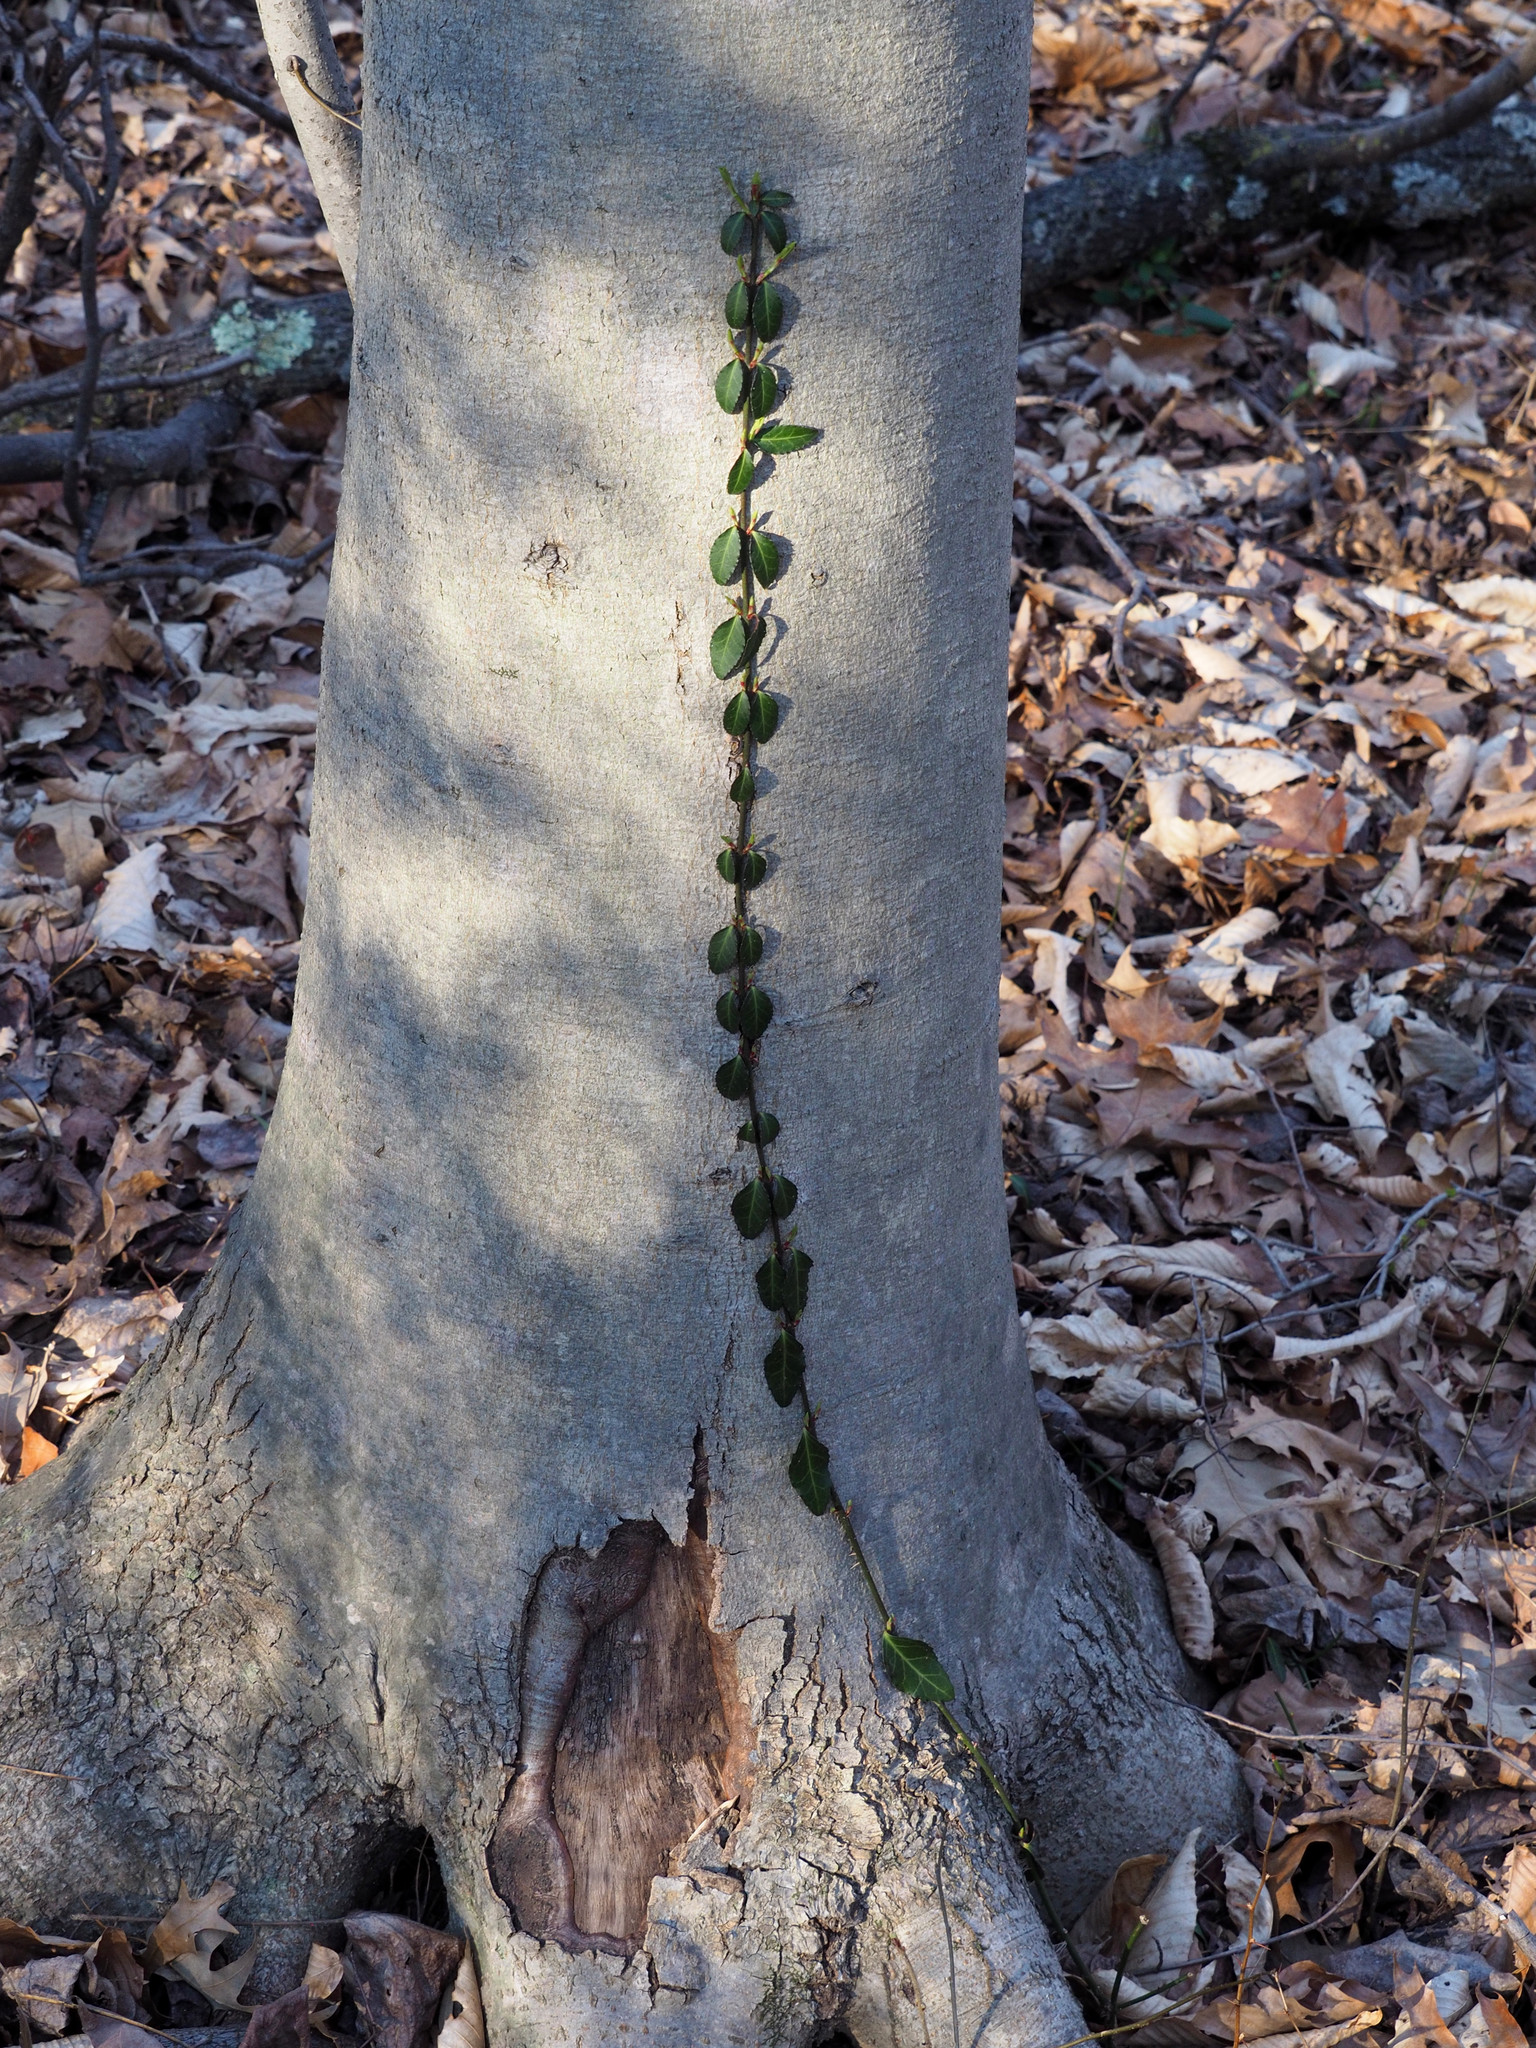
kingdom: Plantae
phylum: Tracheophyta
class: Magnoliopsida
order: Celastrales
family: Celastraceae
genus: Euonymus
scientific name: Euonymus fortunei
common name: Climbing euonymus
